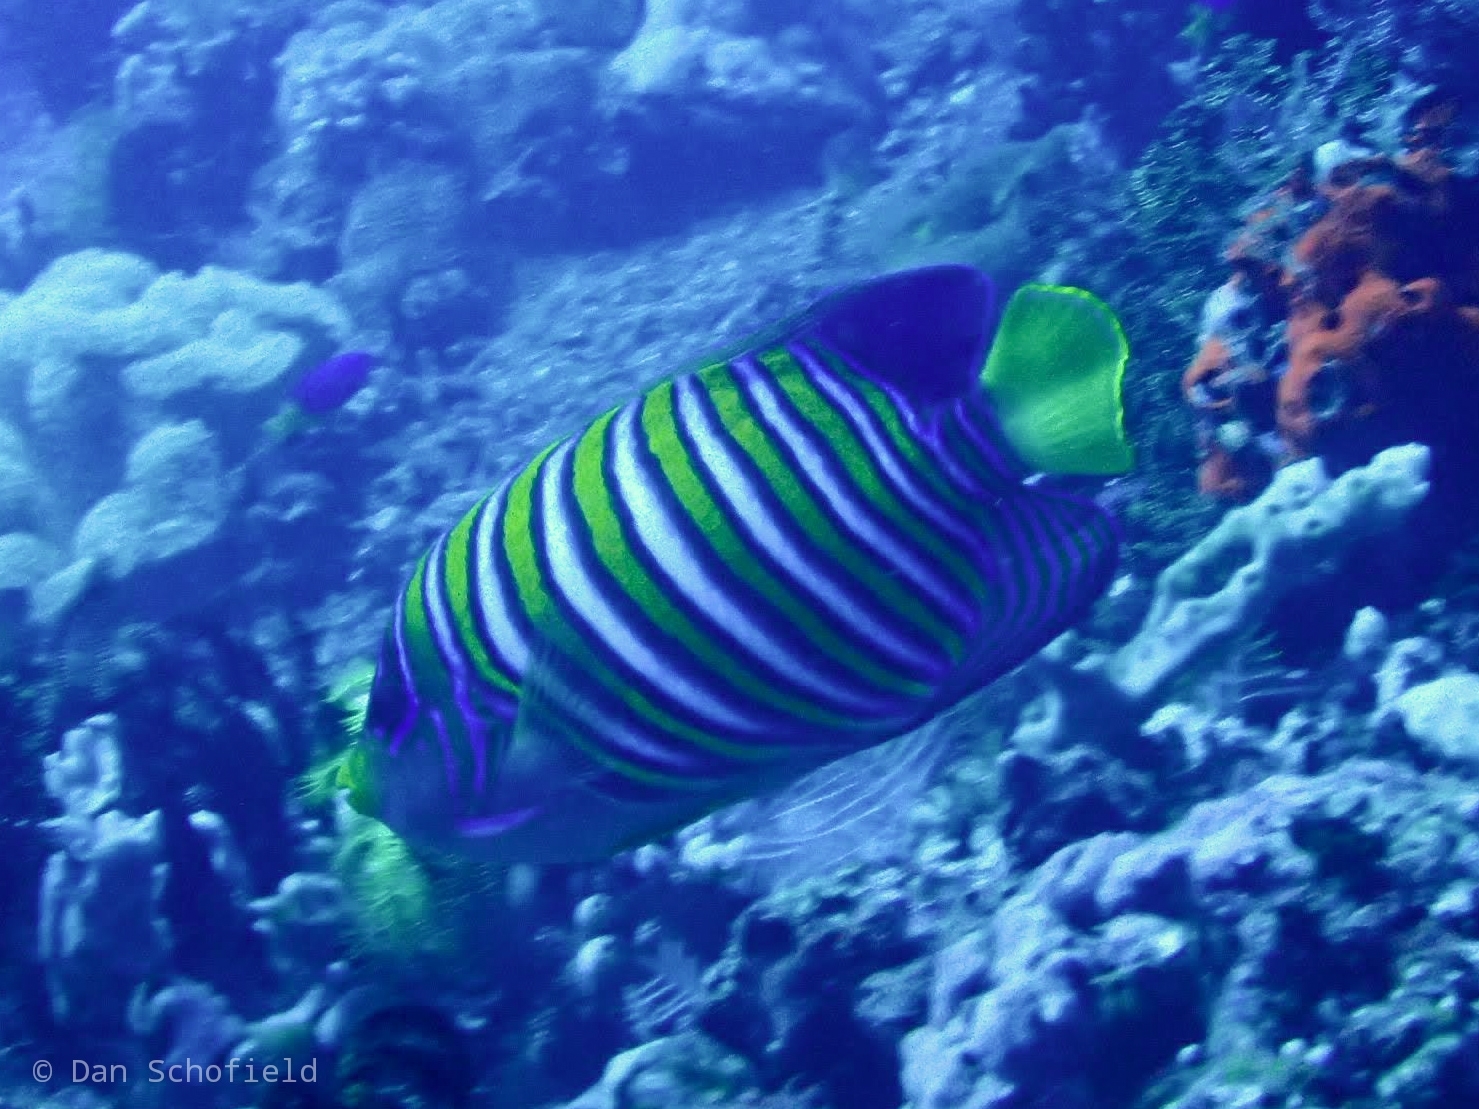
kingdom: Animalia
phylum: Chordata
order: Perciformes
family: Pomacanthidae
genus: Pygoplites
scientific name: Pygoplites diacanthus
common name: Regal angelfish
